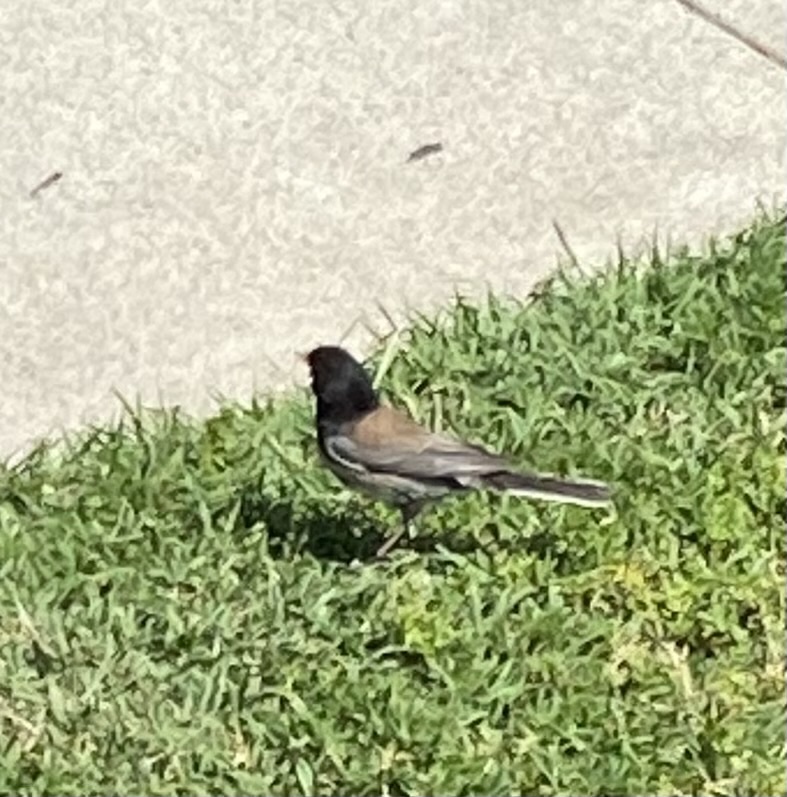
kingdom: Animalia
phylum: Chordata
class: Aves
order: Passeriformes
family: Passerellidae
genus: Junco
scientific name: Junco hyemalis
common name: Dark-eyed junco
